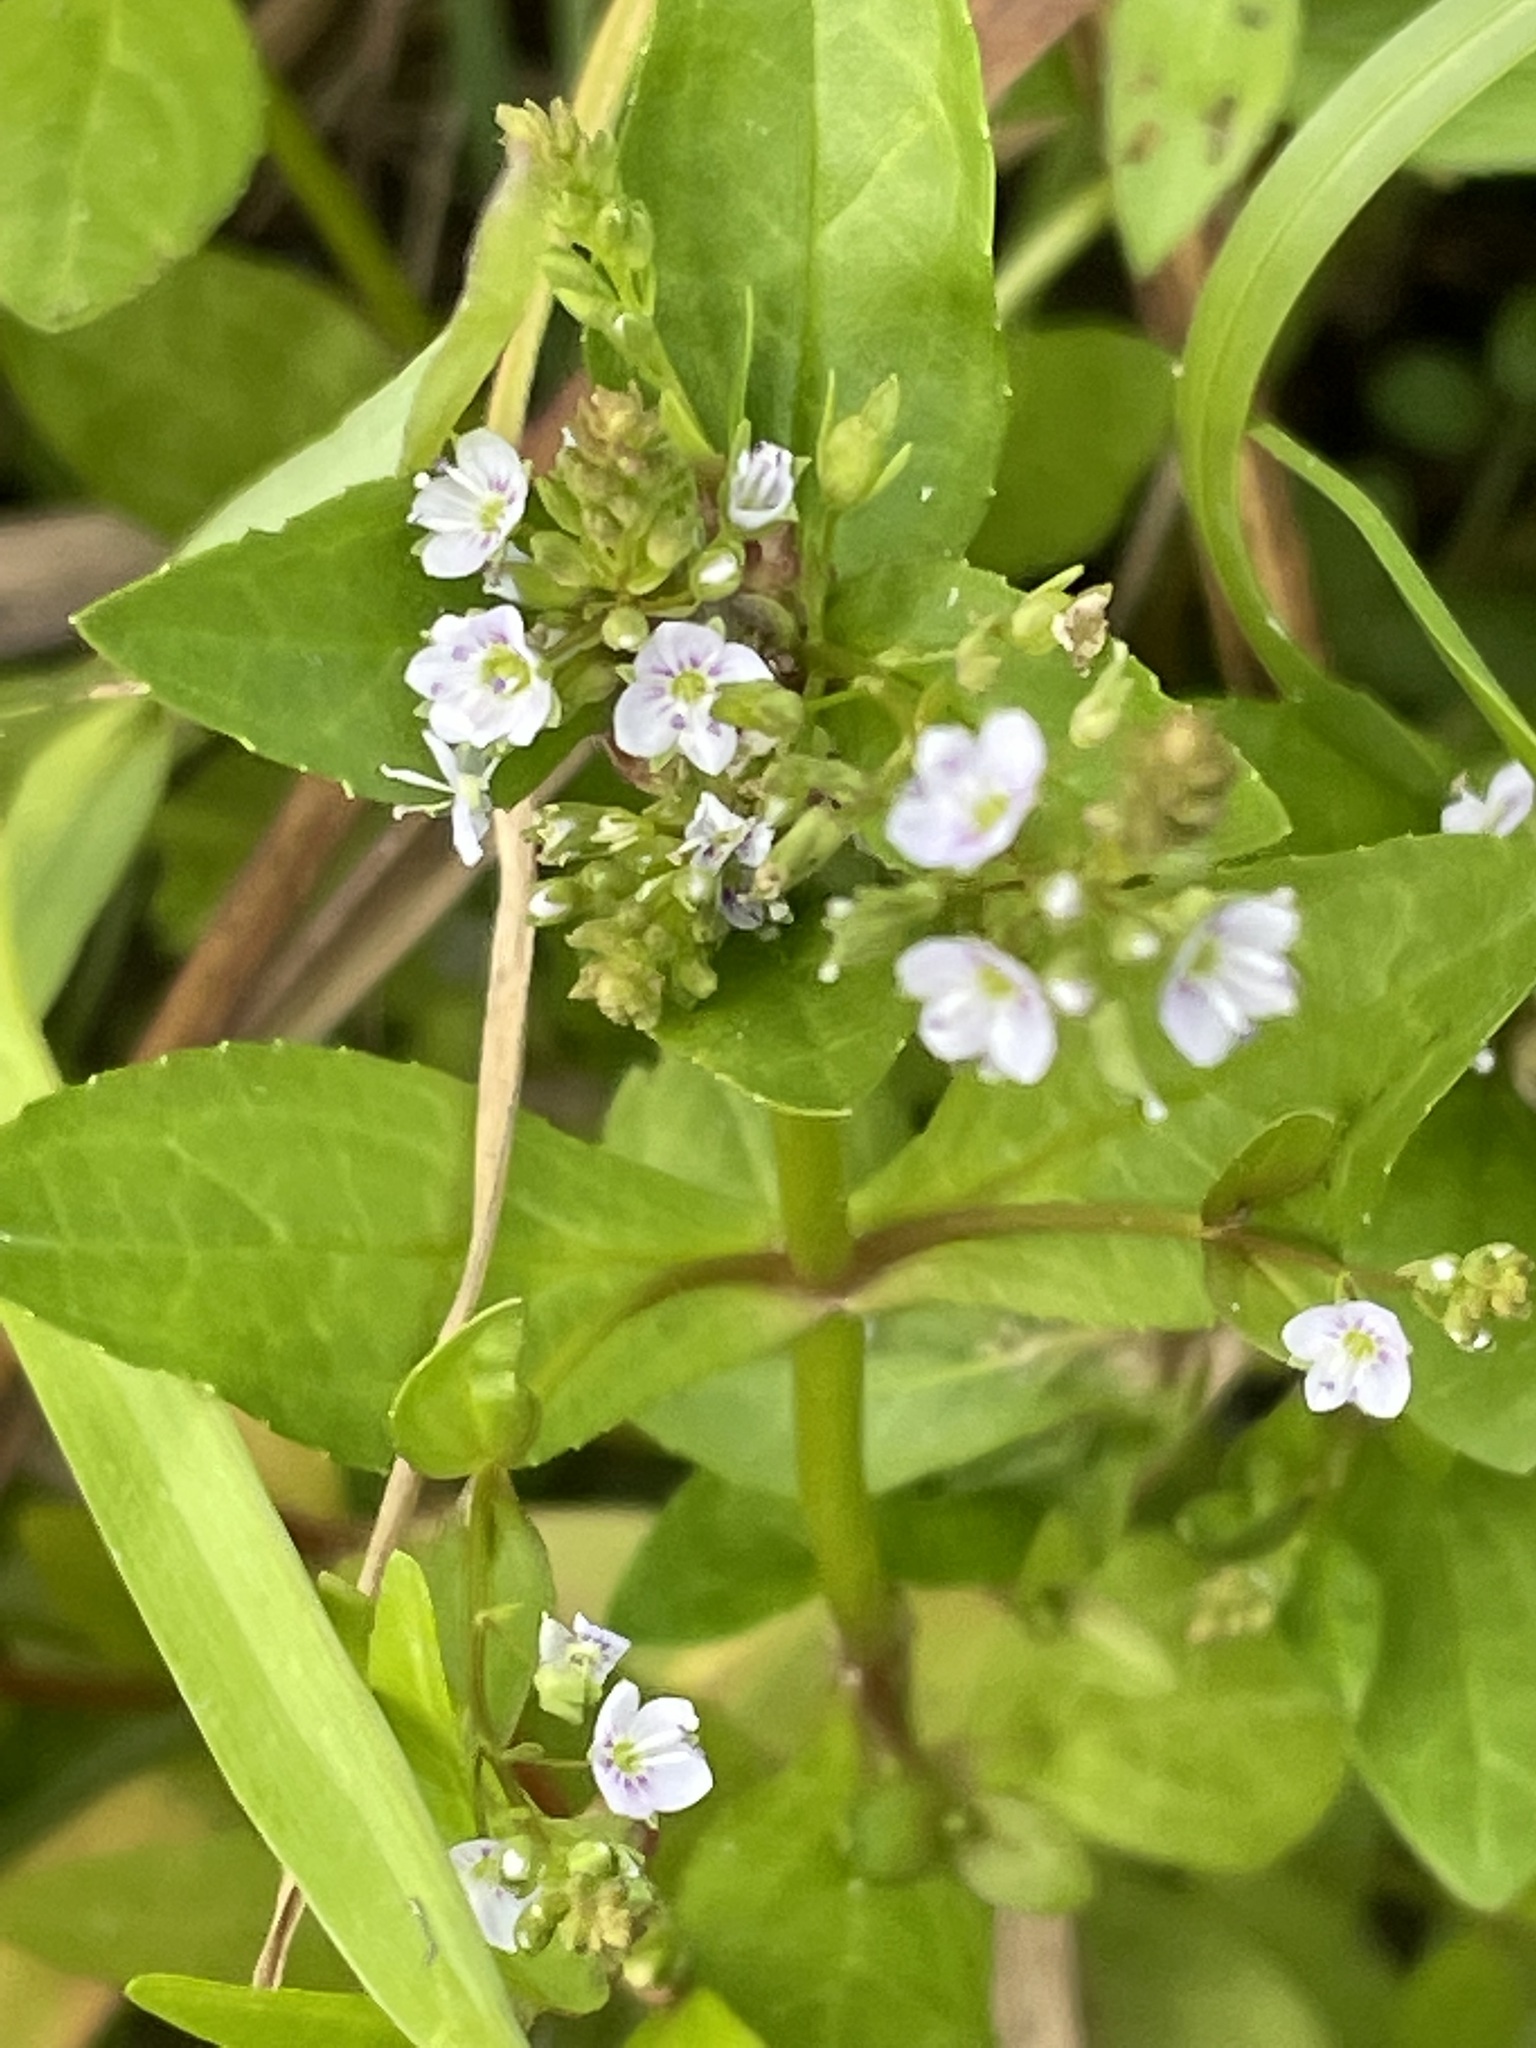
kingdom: Plantae
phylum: Tracheophyta
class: Magnoliopsida
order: Lamiales
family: Plantaginaceae
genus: Veronica
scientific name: Veronica anagallis-aquatica
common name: Water speedwell
